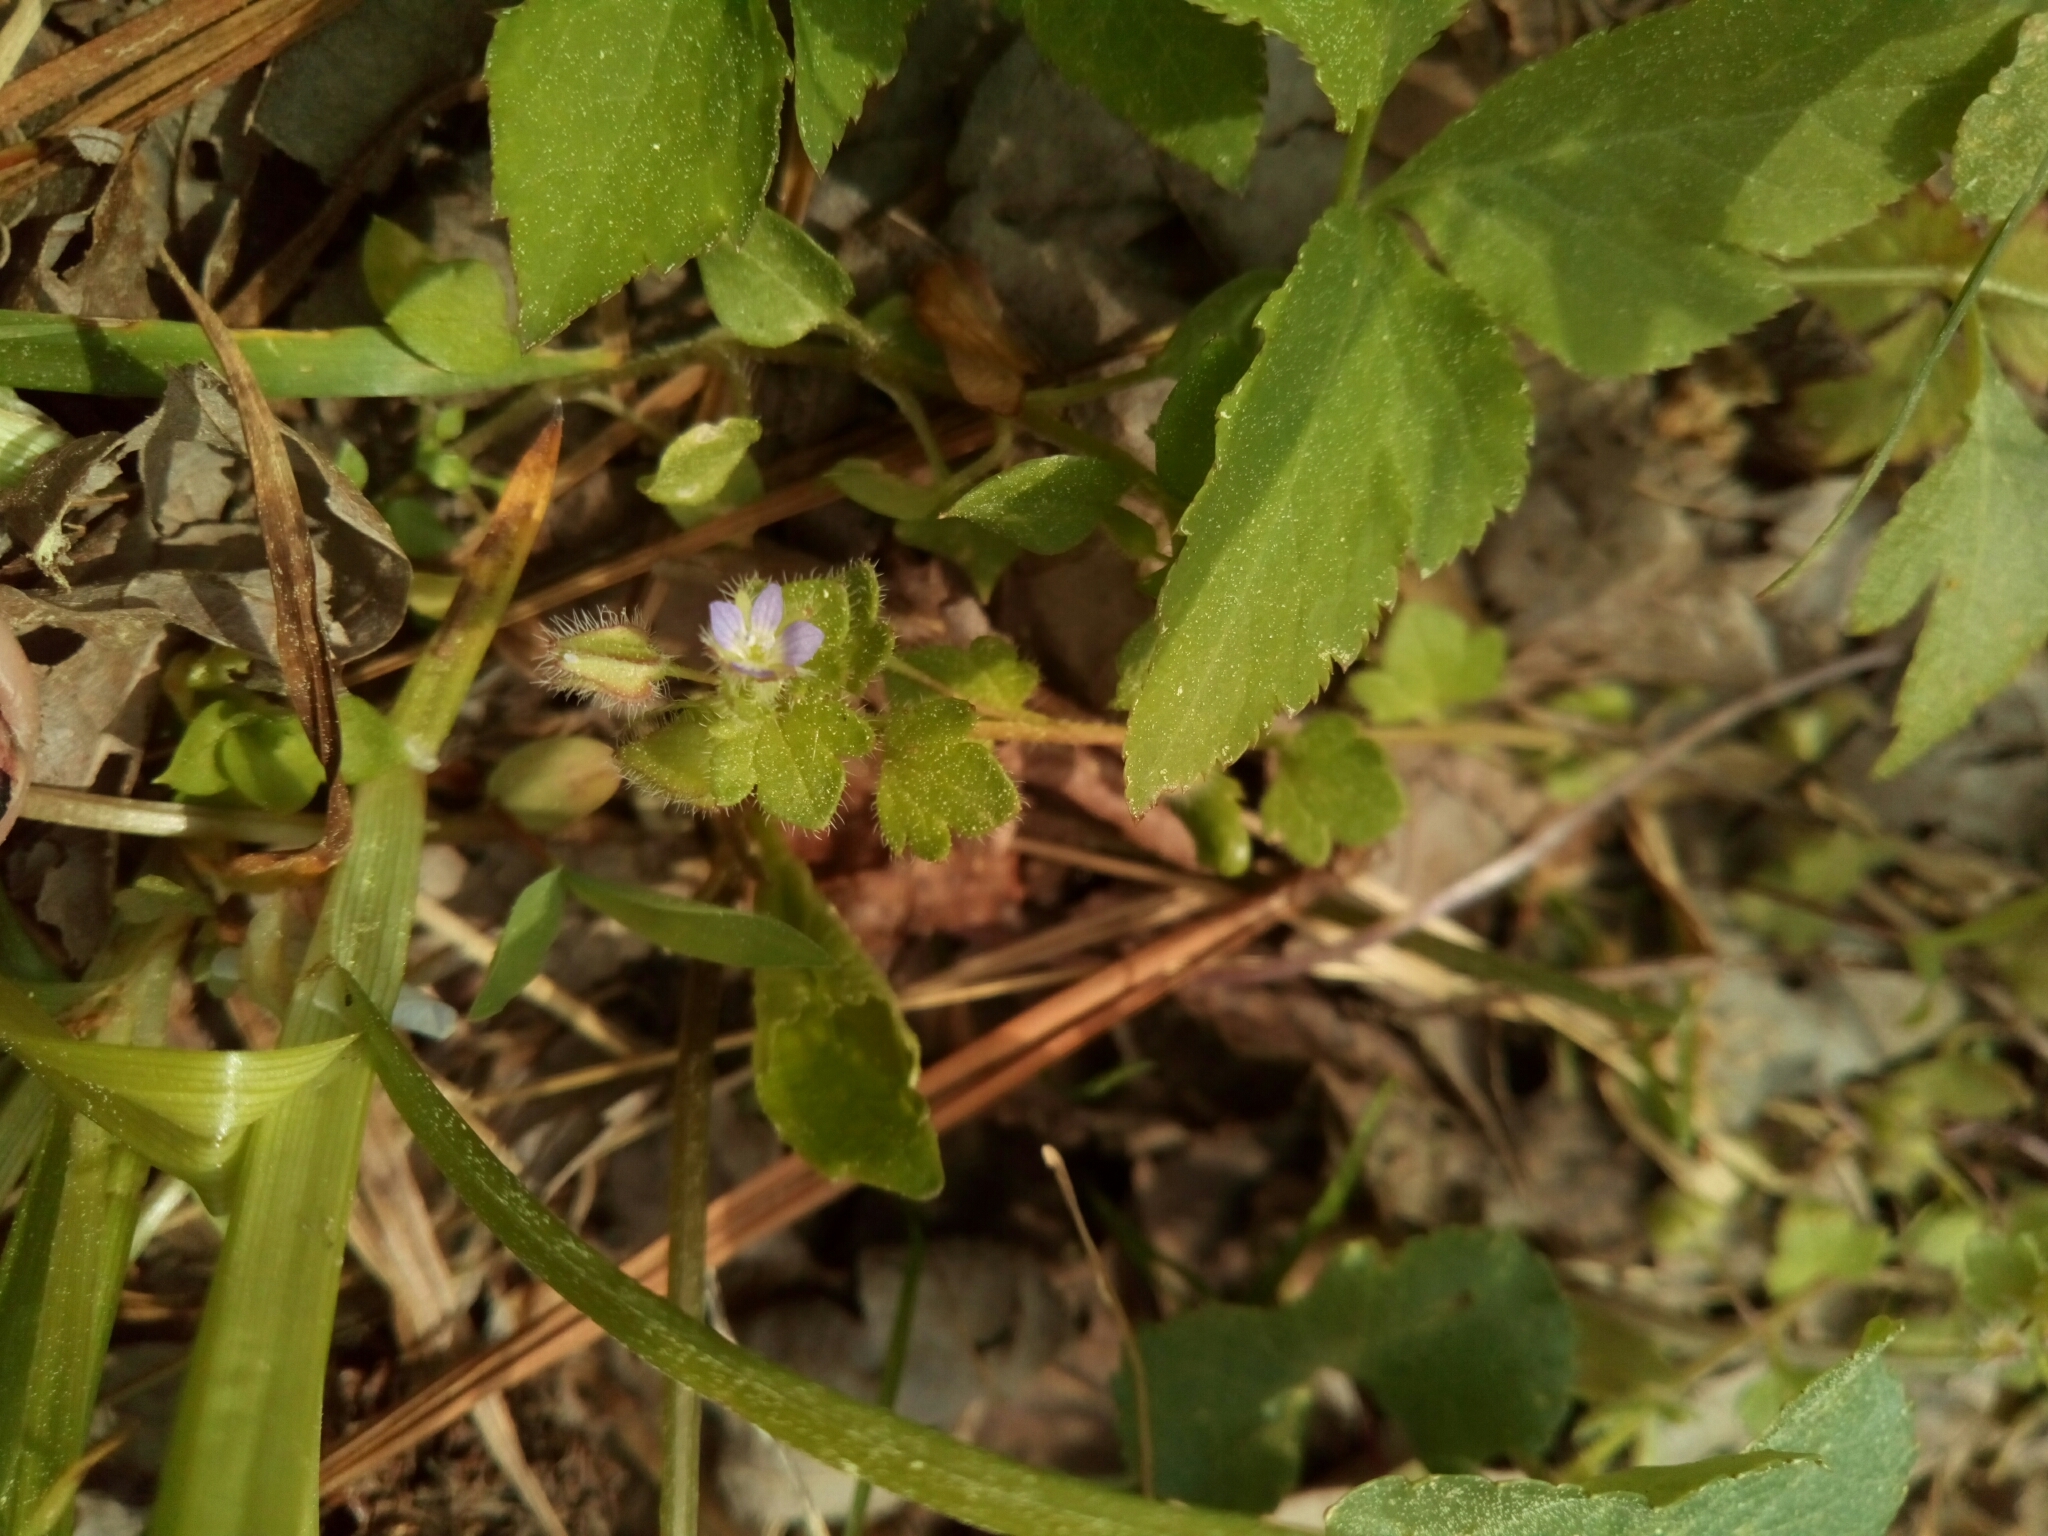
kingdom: Plantae
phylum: Tracheophyta
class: Magnoliopsida
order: Lamiales
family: Plantaginaceae
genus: Veronica
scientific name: Veronica hederifolia
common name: Ivy-leaved speedwell
